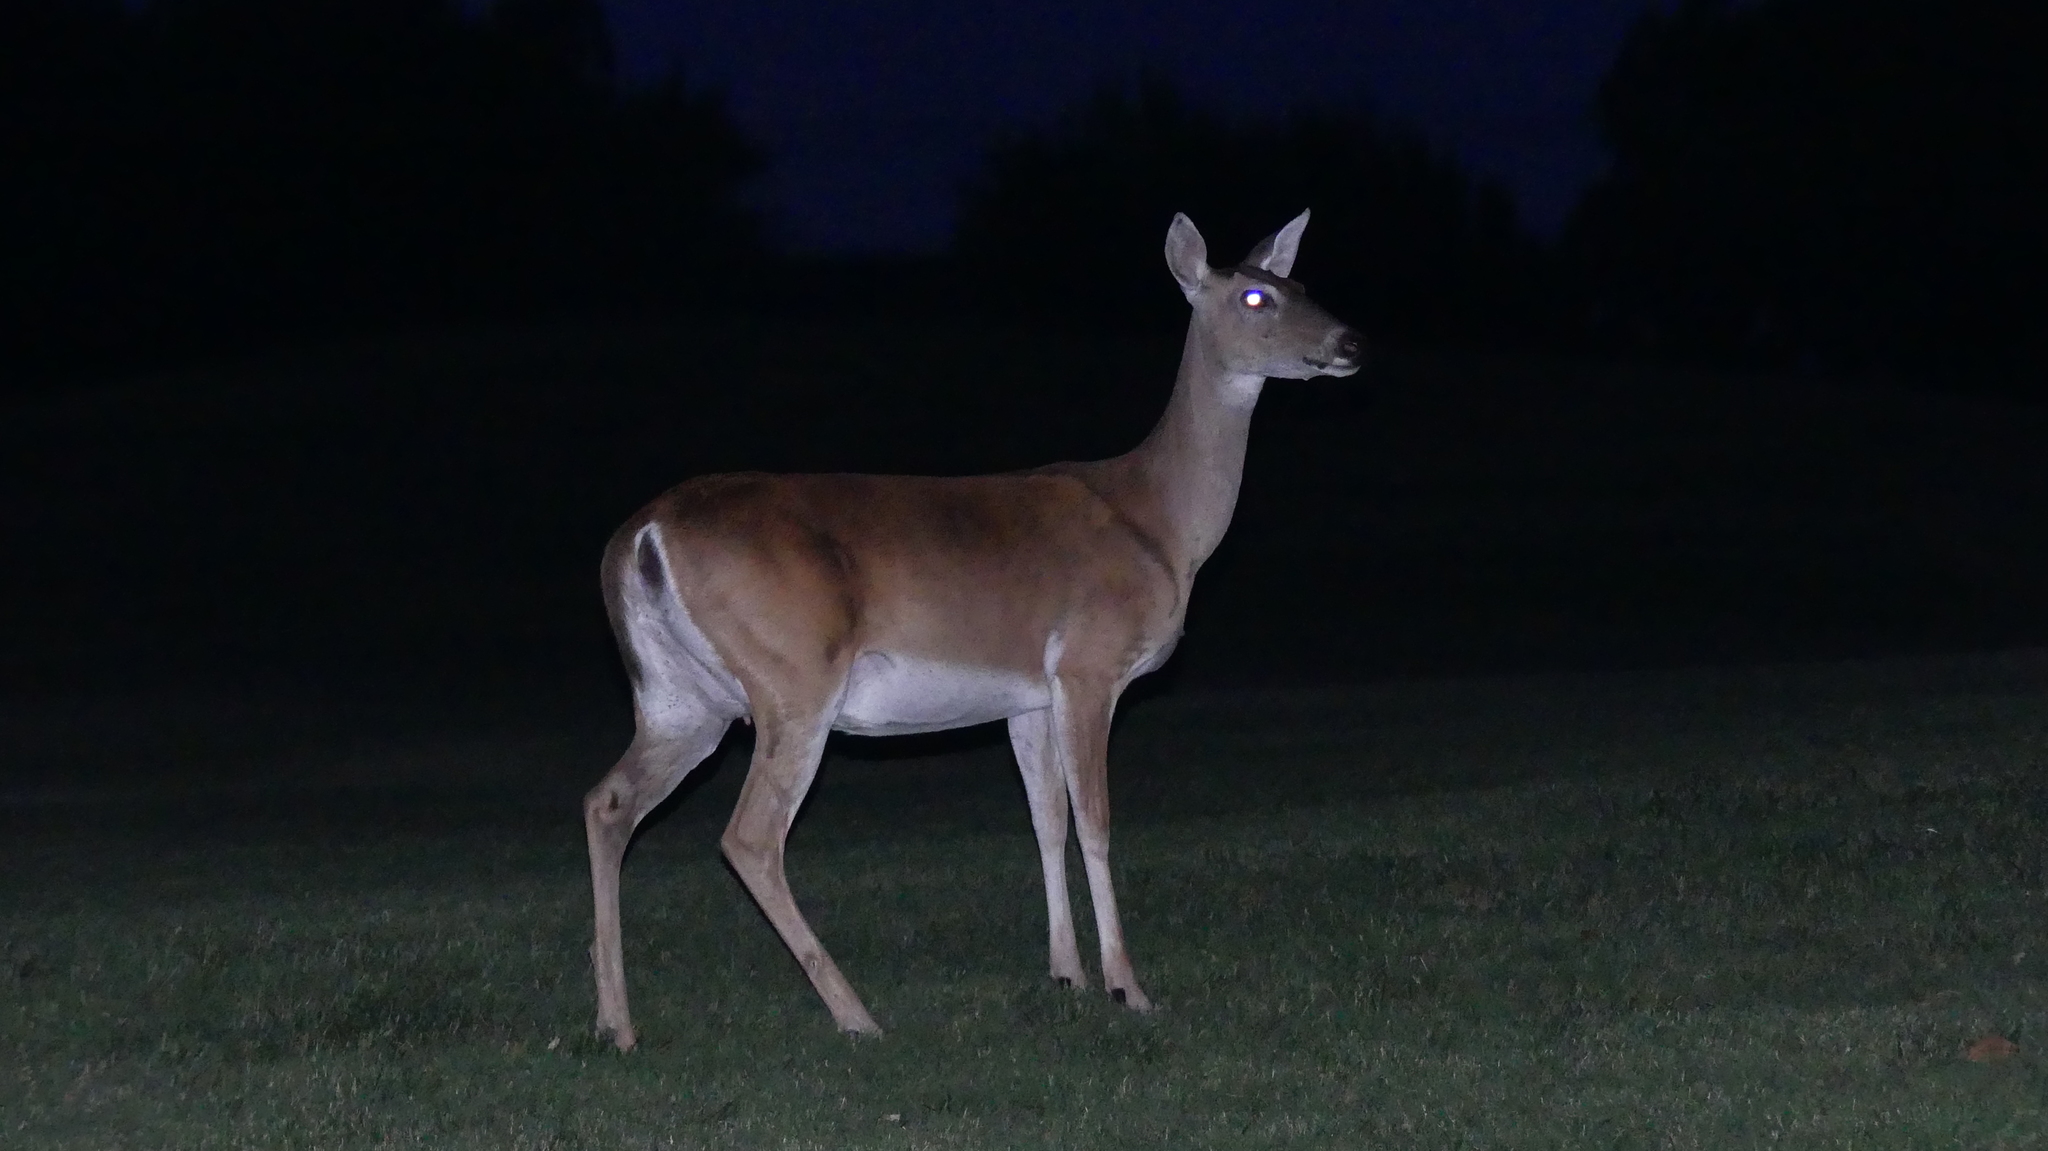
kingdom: Animalia
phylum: Chordata
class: Mammalia
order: Artiodactyla
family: Cervidae
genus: Odocoileus
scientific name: Odocoileus virginianus
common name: White-tailed deer
